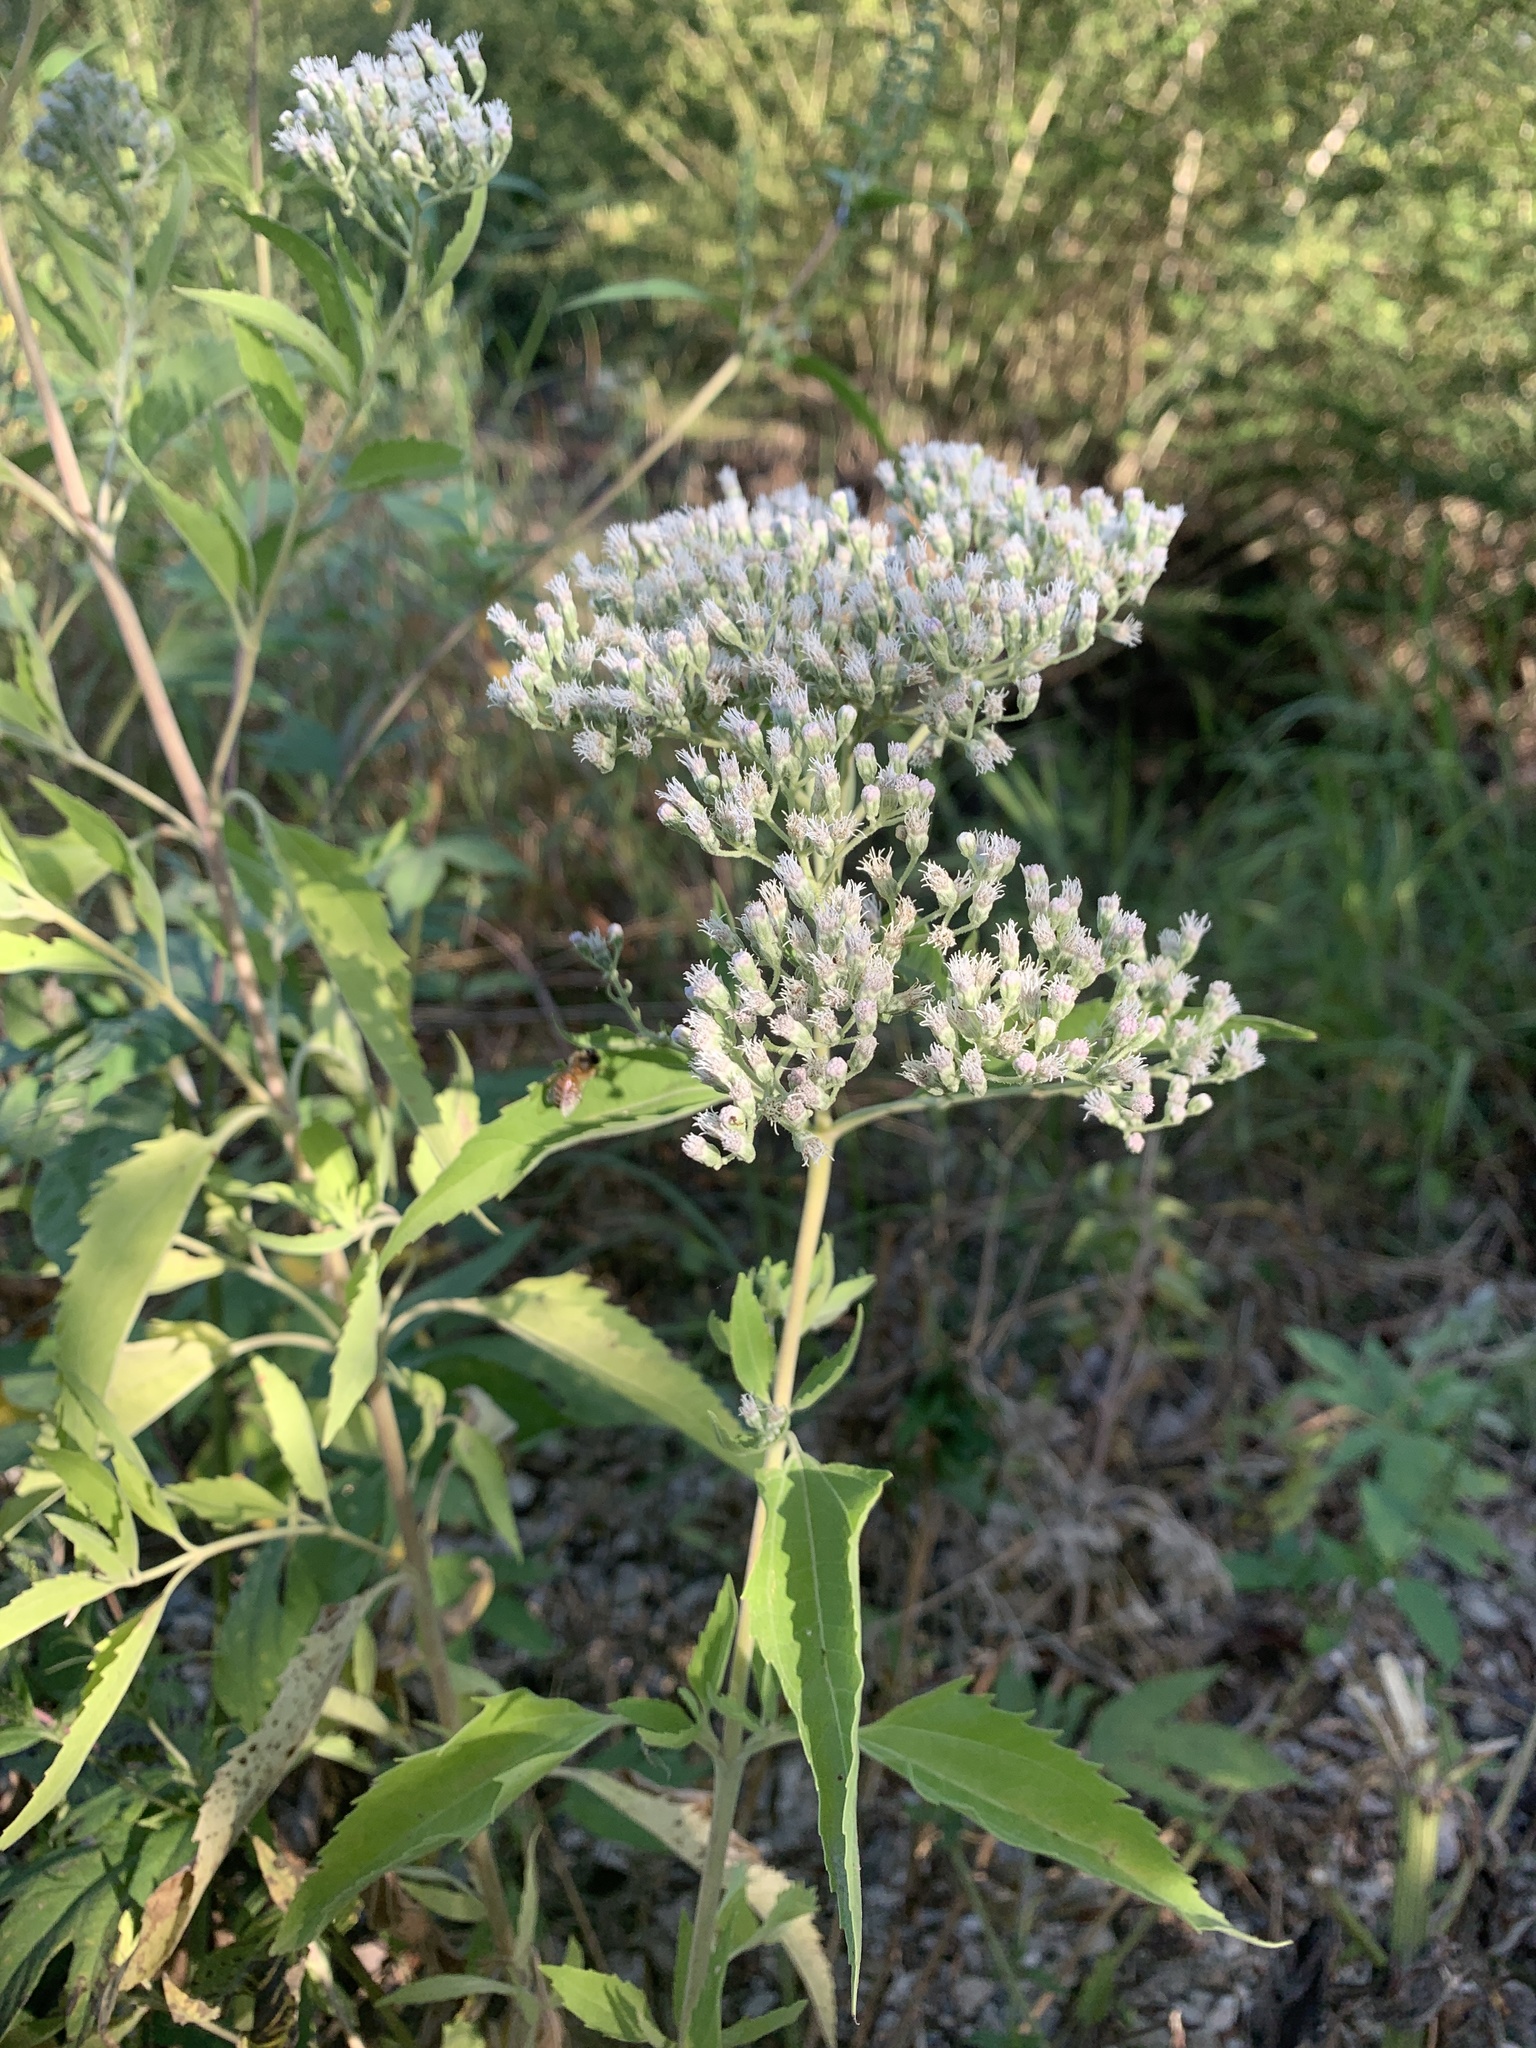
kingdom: Plantae
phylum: Tracheophyta
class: Magnoliopsida
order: Asterales
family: Asteraceae
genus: Eupatorium
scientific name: Eupatorium serotinum
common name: Late boneset
